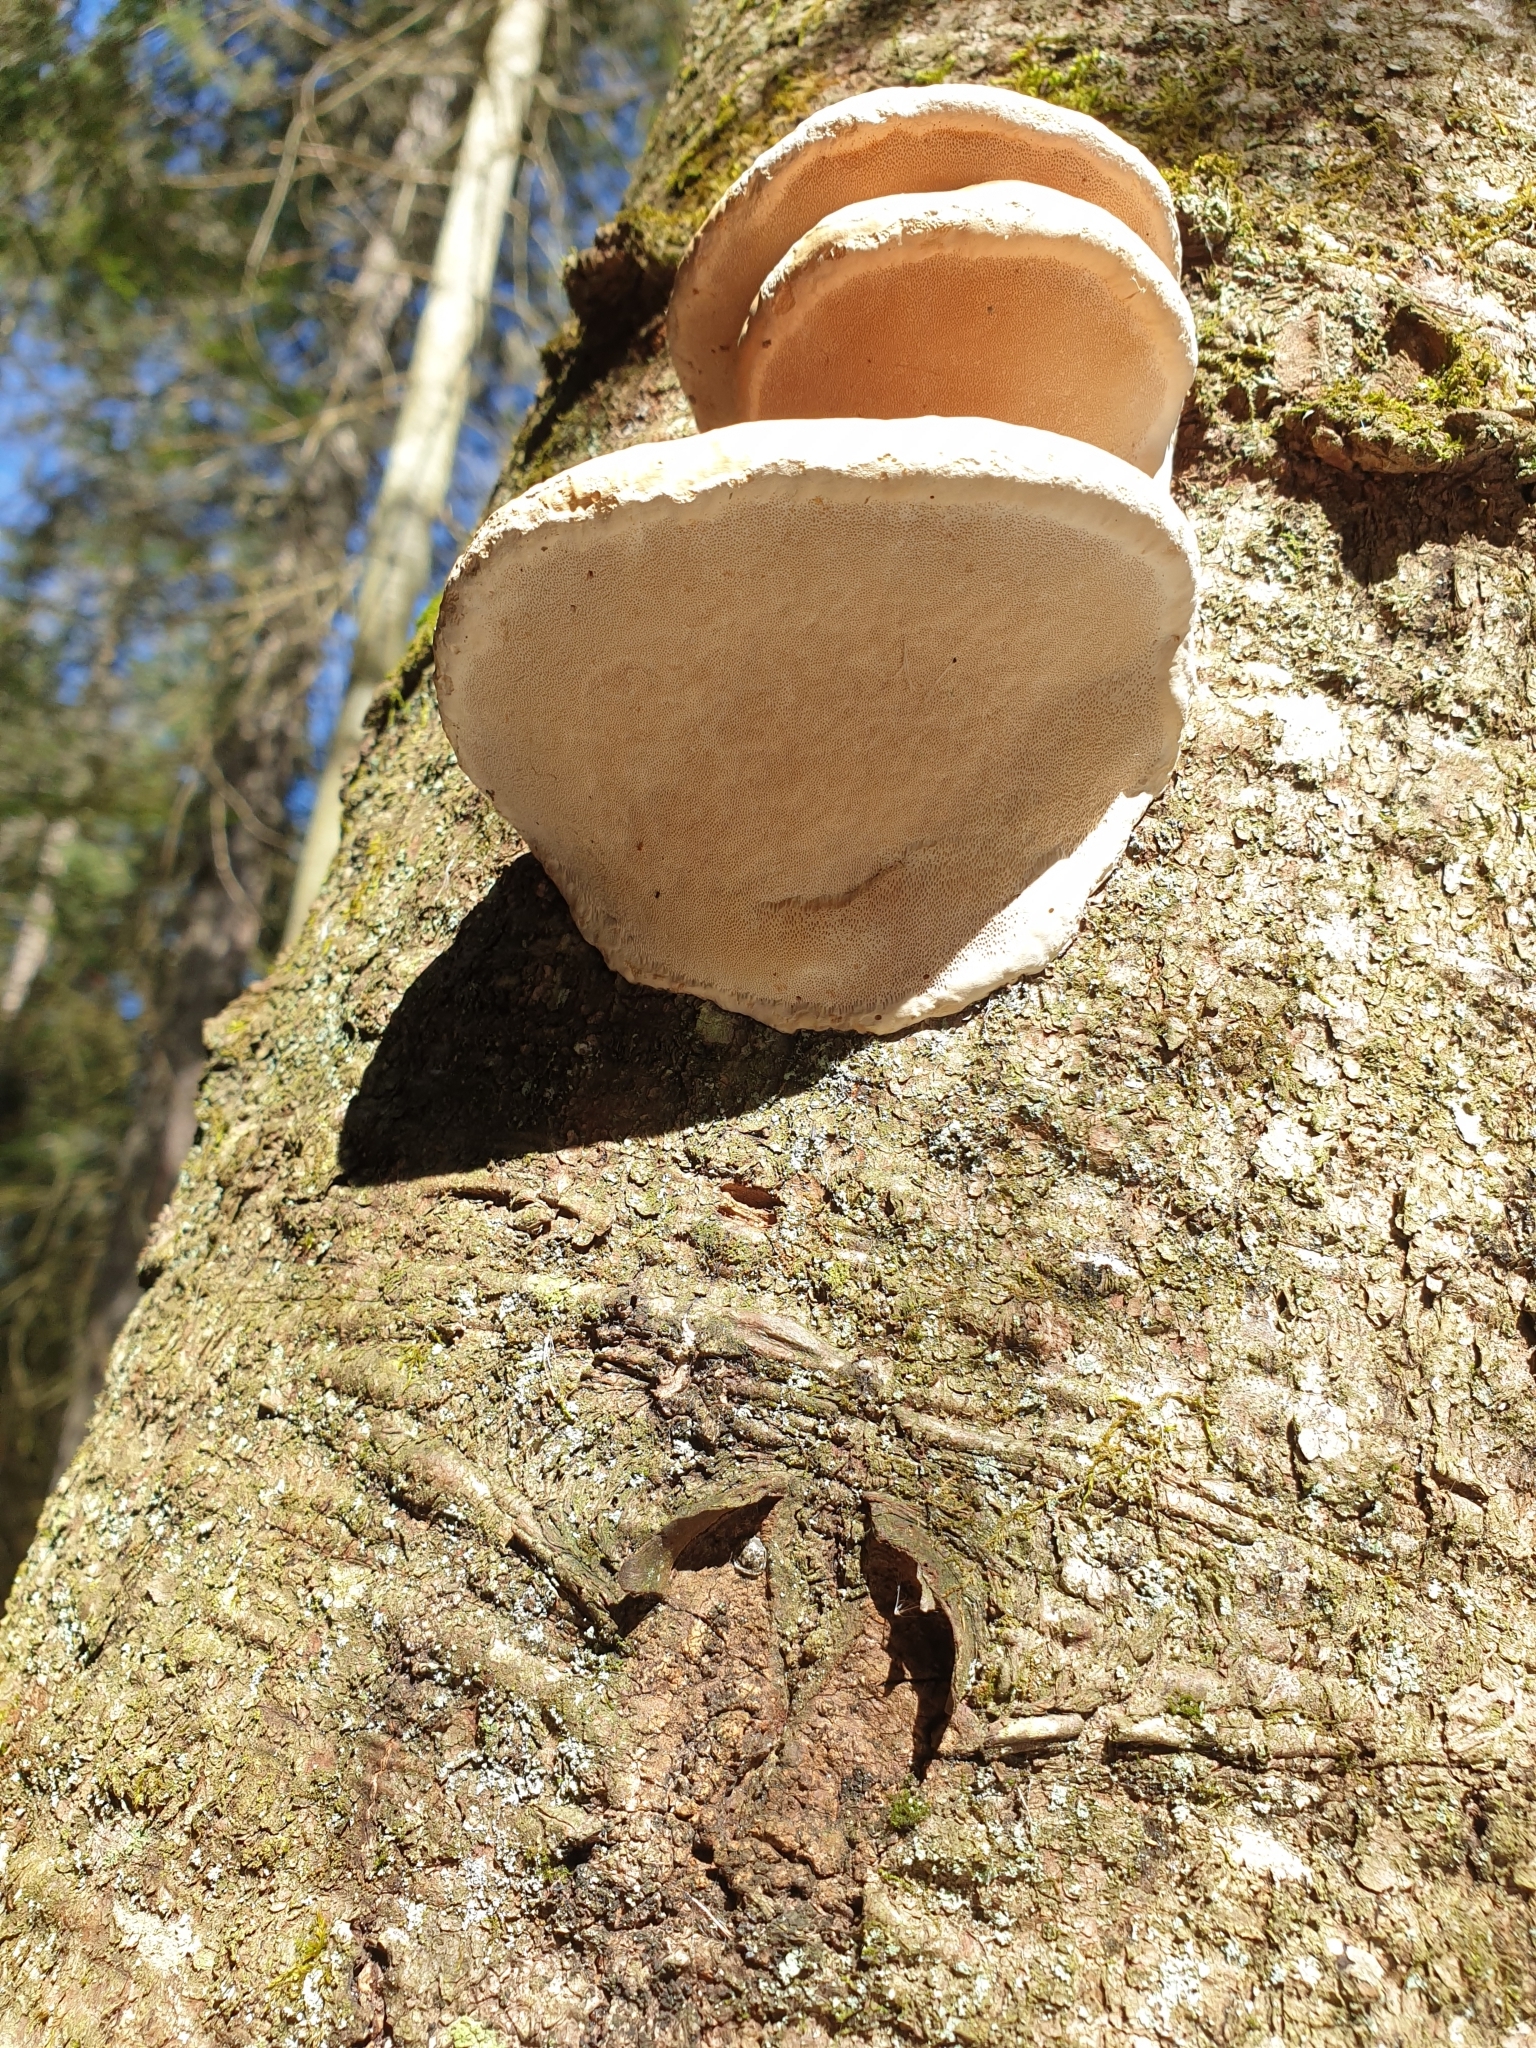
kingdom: Fungi
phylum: Basidiomycota
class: Agaricomycetes
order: Polyporales
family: Fomitopsidaceae
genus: Fomitopsis
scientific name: Fomitopsis mounceae
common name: Northern red belt
